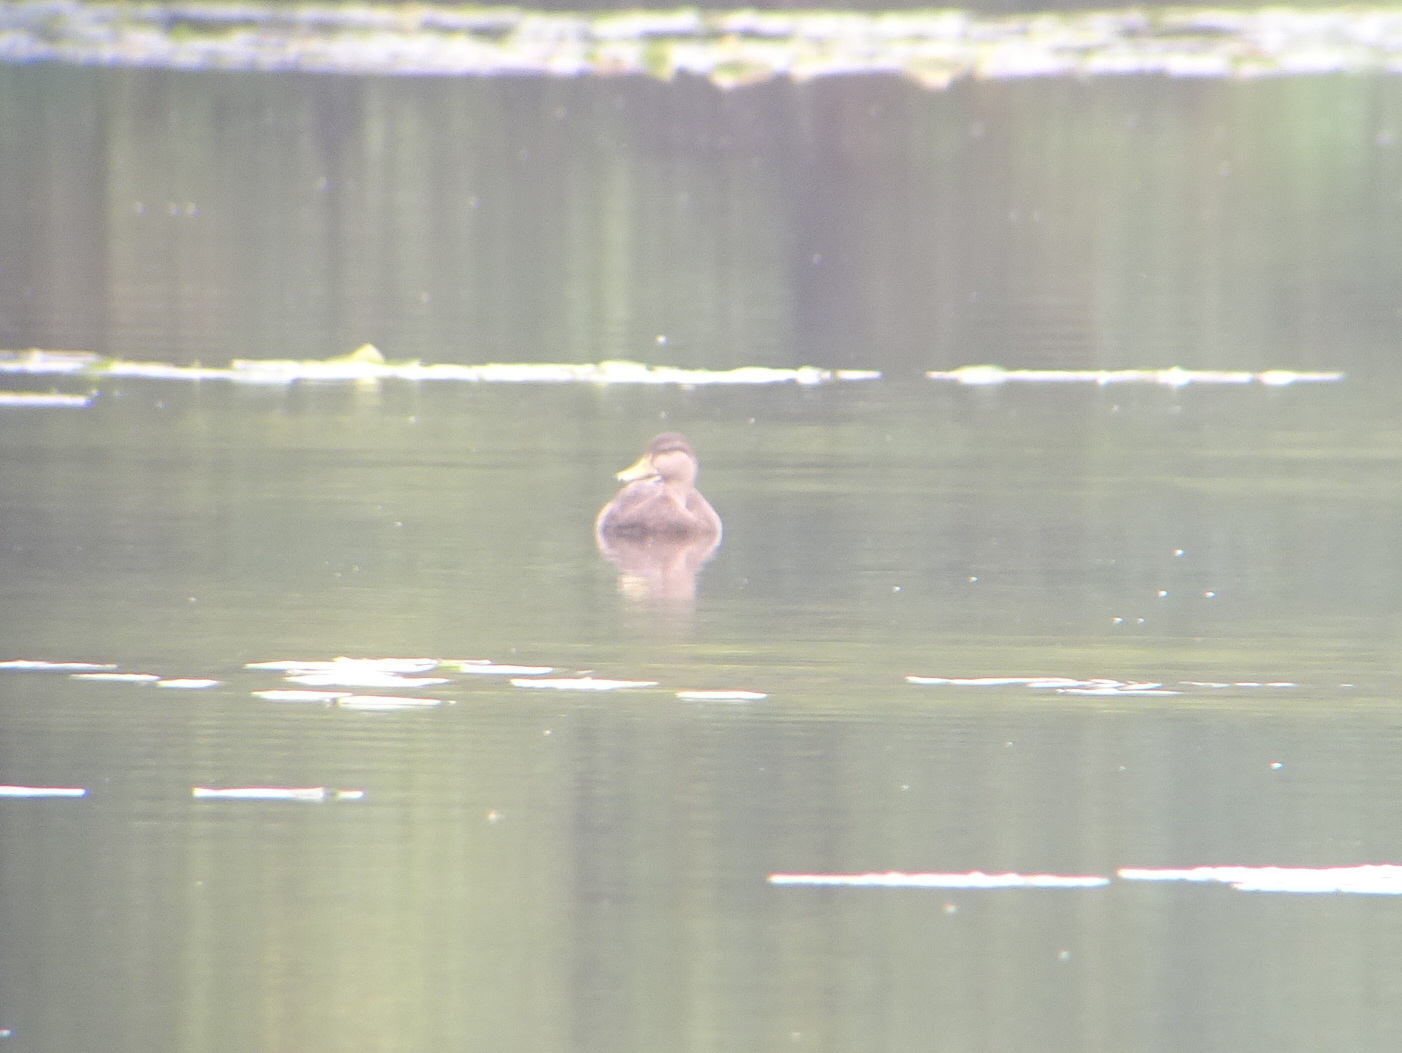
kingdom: Animalia
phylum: Chordata
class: Aves
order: Anseriformes
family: Anatidae
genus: Anas
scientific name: Anas
